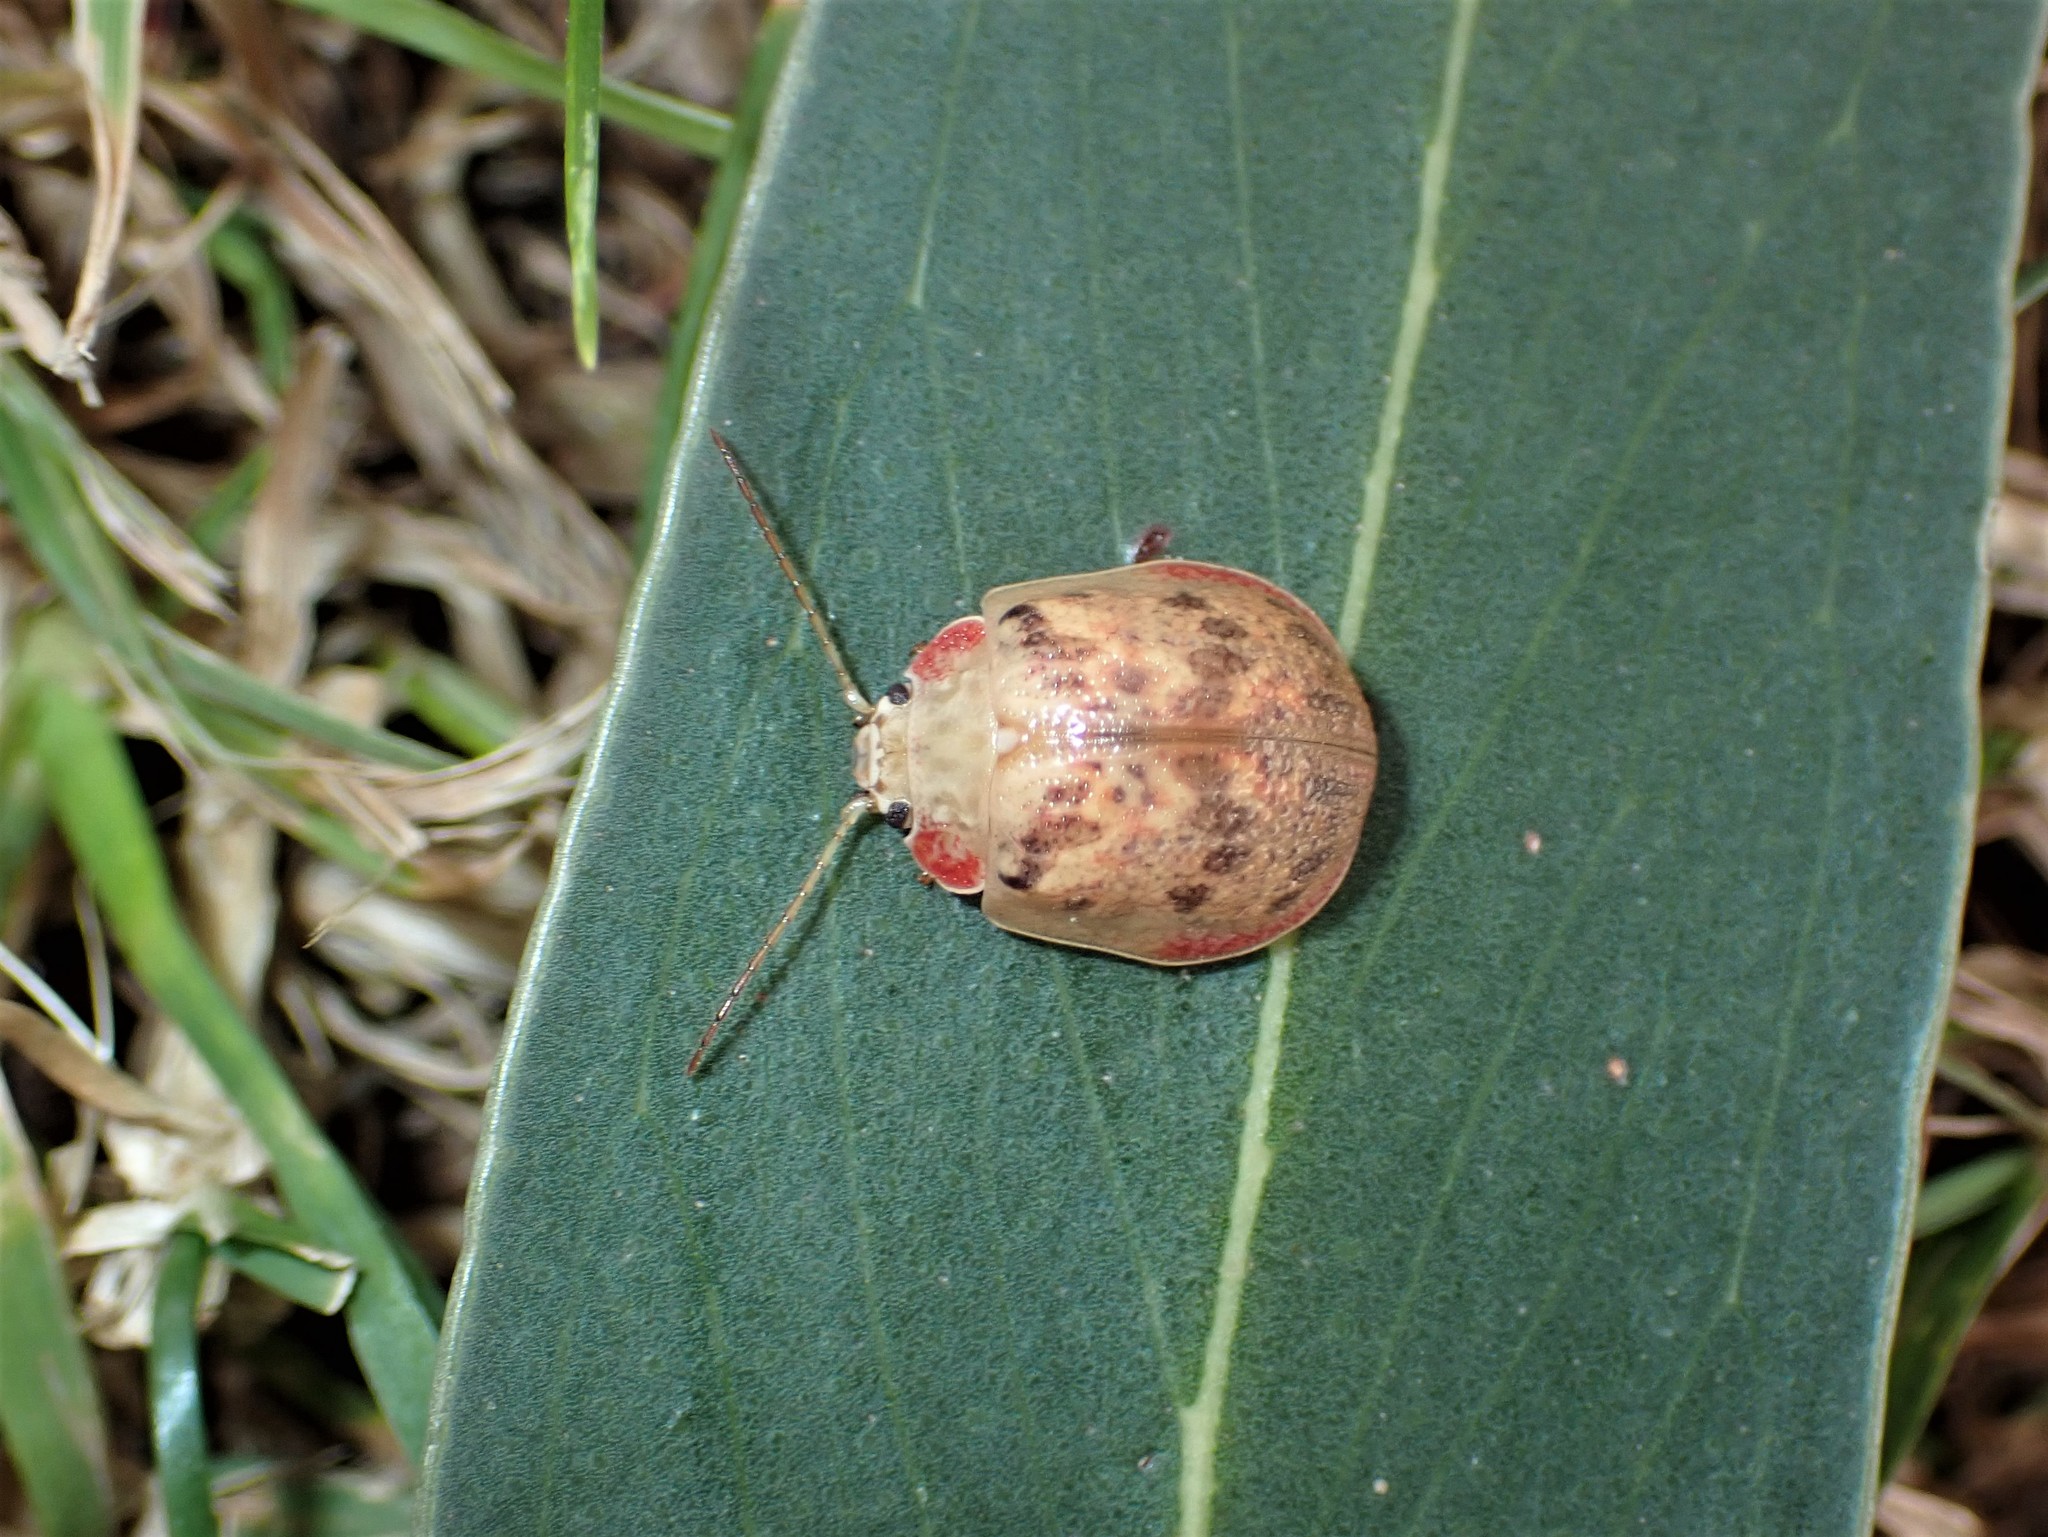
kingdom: Animalia
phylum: Arthropoda
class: Insecta
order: Coleoptera
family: Chrysomelidae
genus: Paropsis
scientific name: Paropsis charybdis
